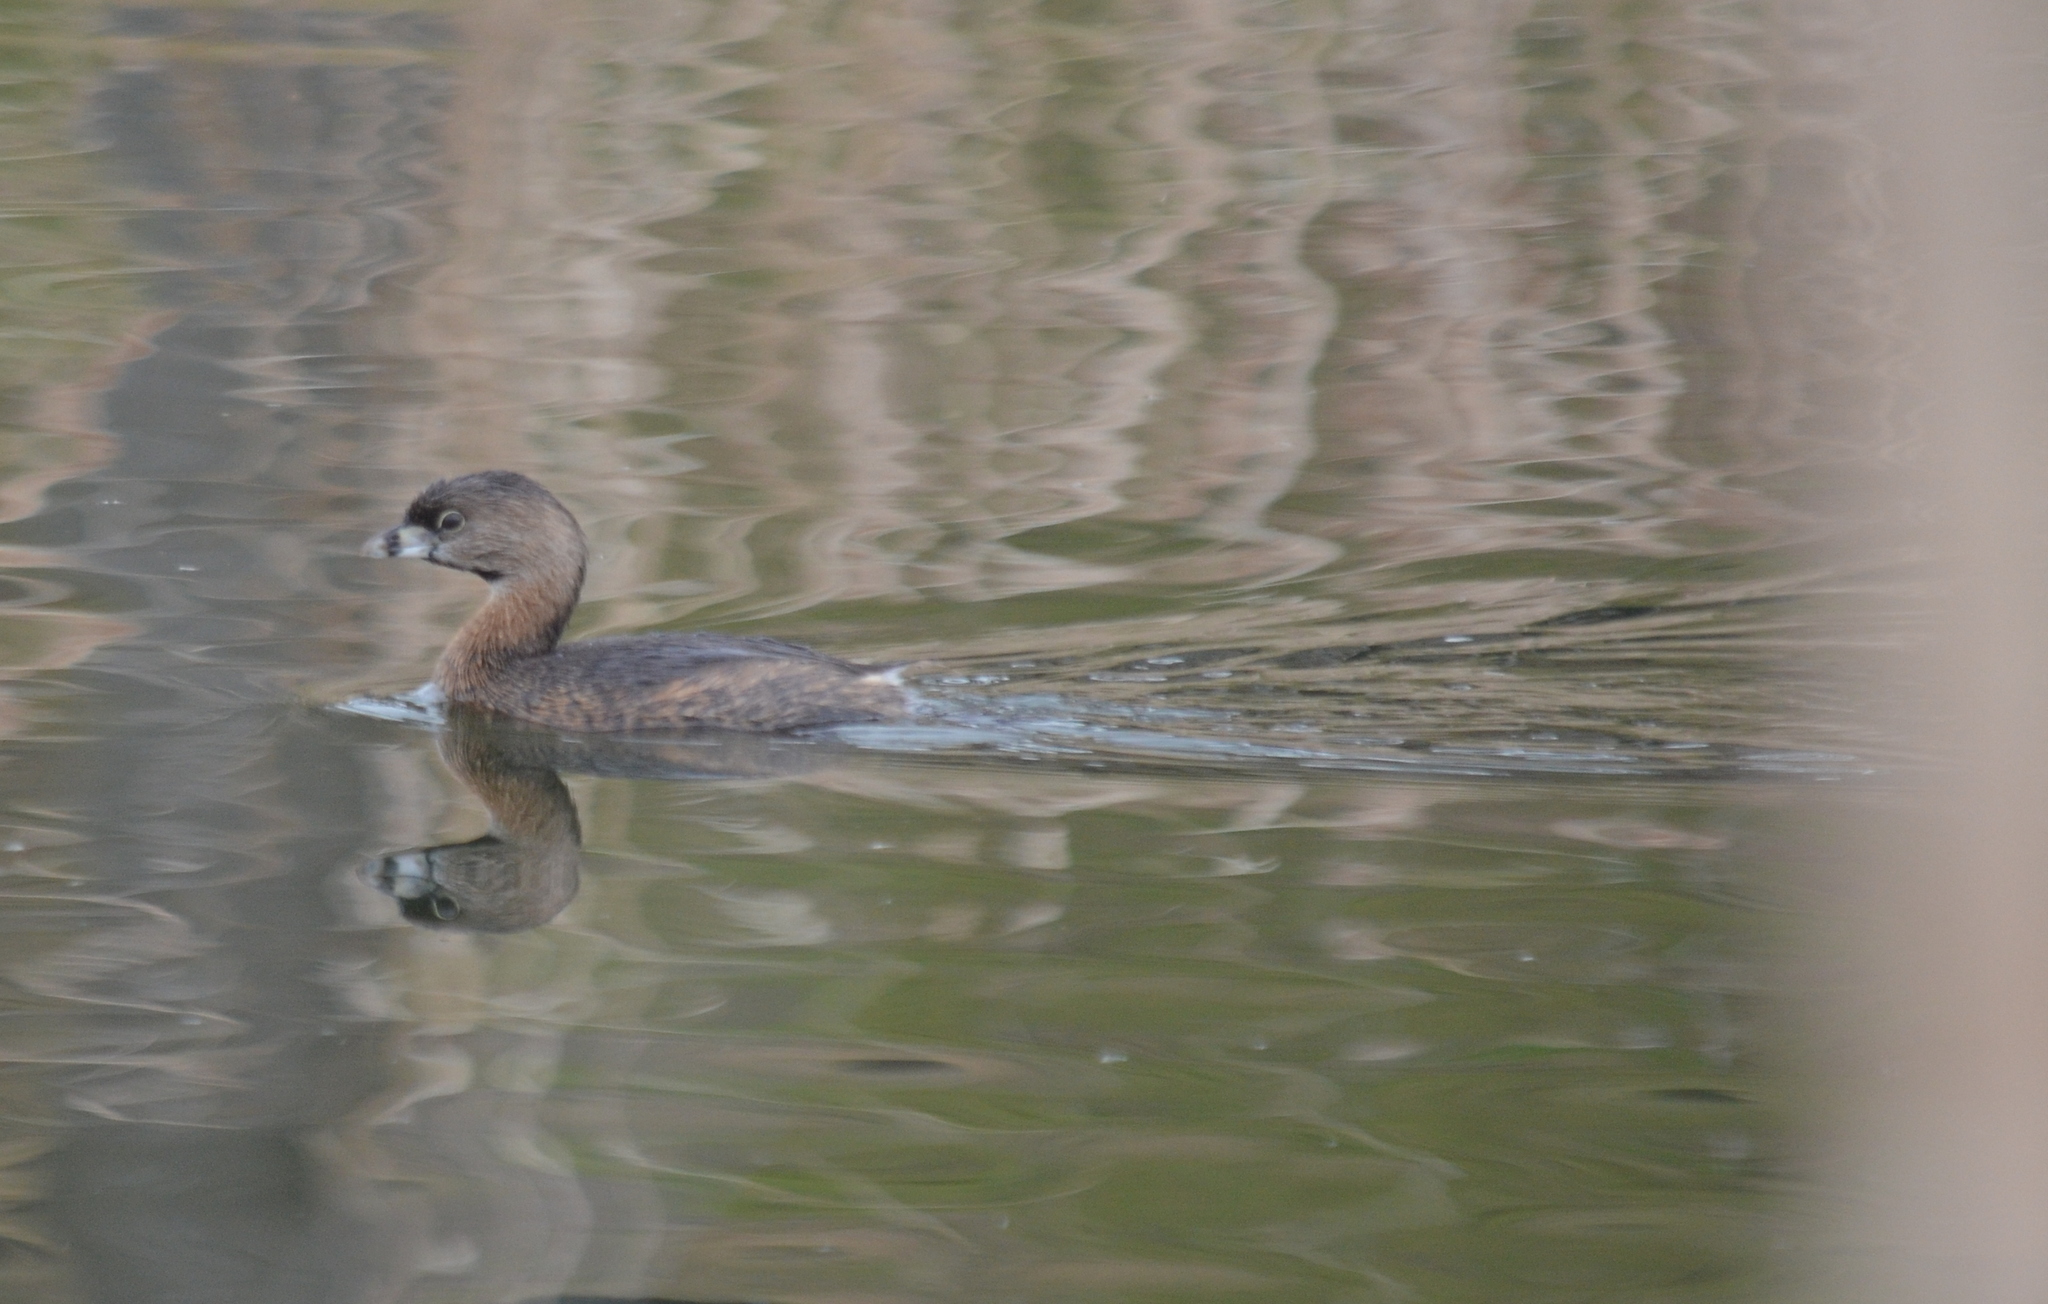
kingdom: Animalia
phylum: Chordata
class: Aves
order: Podicipediformes
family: Podicipedidae
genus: Podilymbus
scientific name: Podilymbus podiceps
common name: Pied-billed grebe
